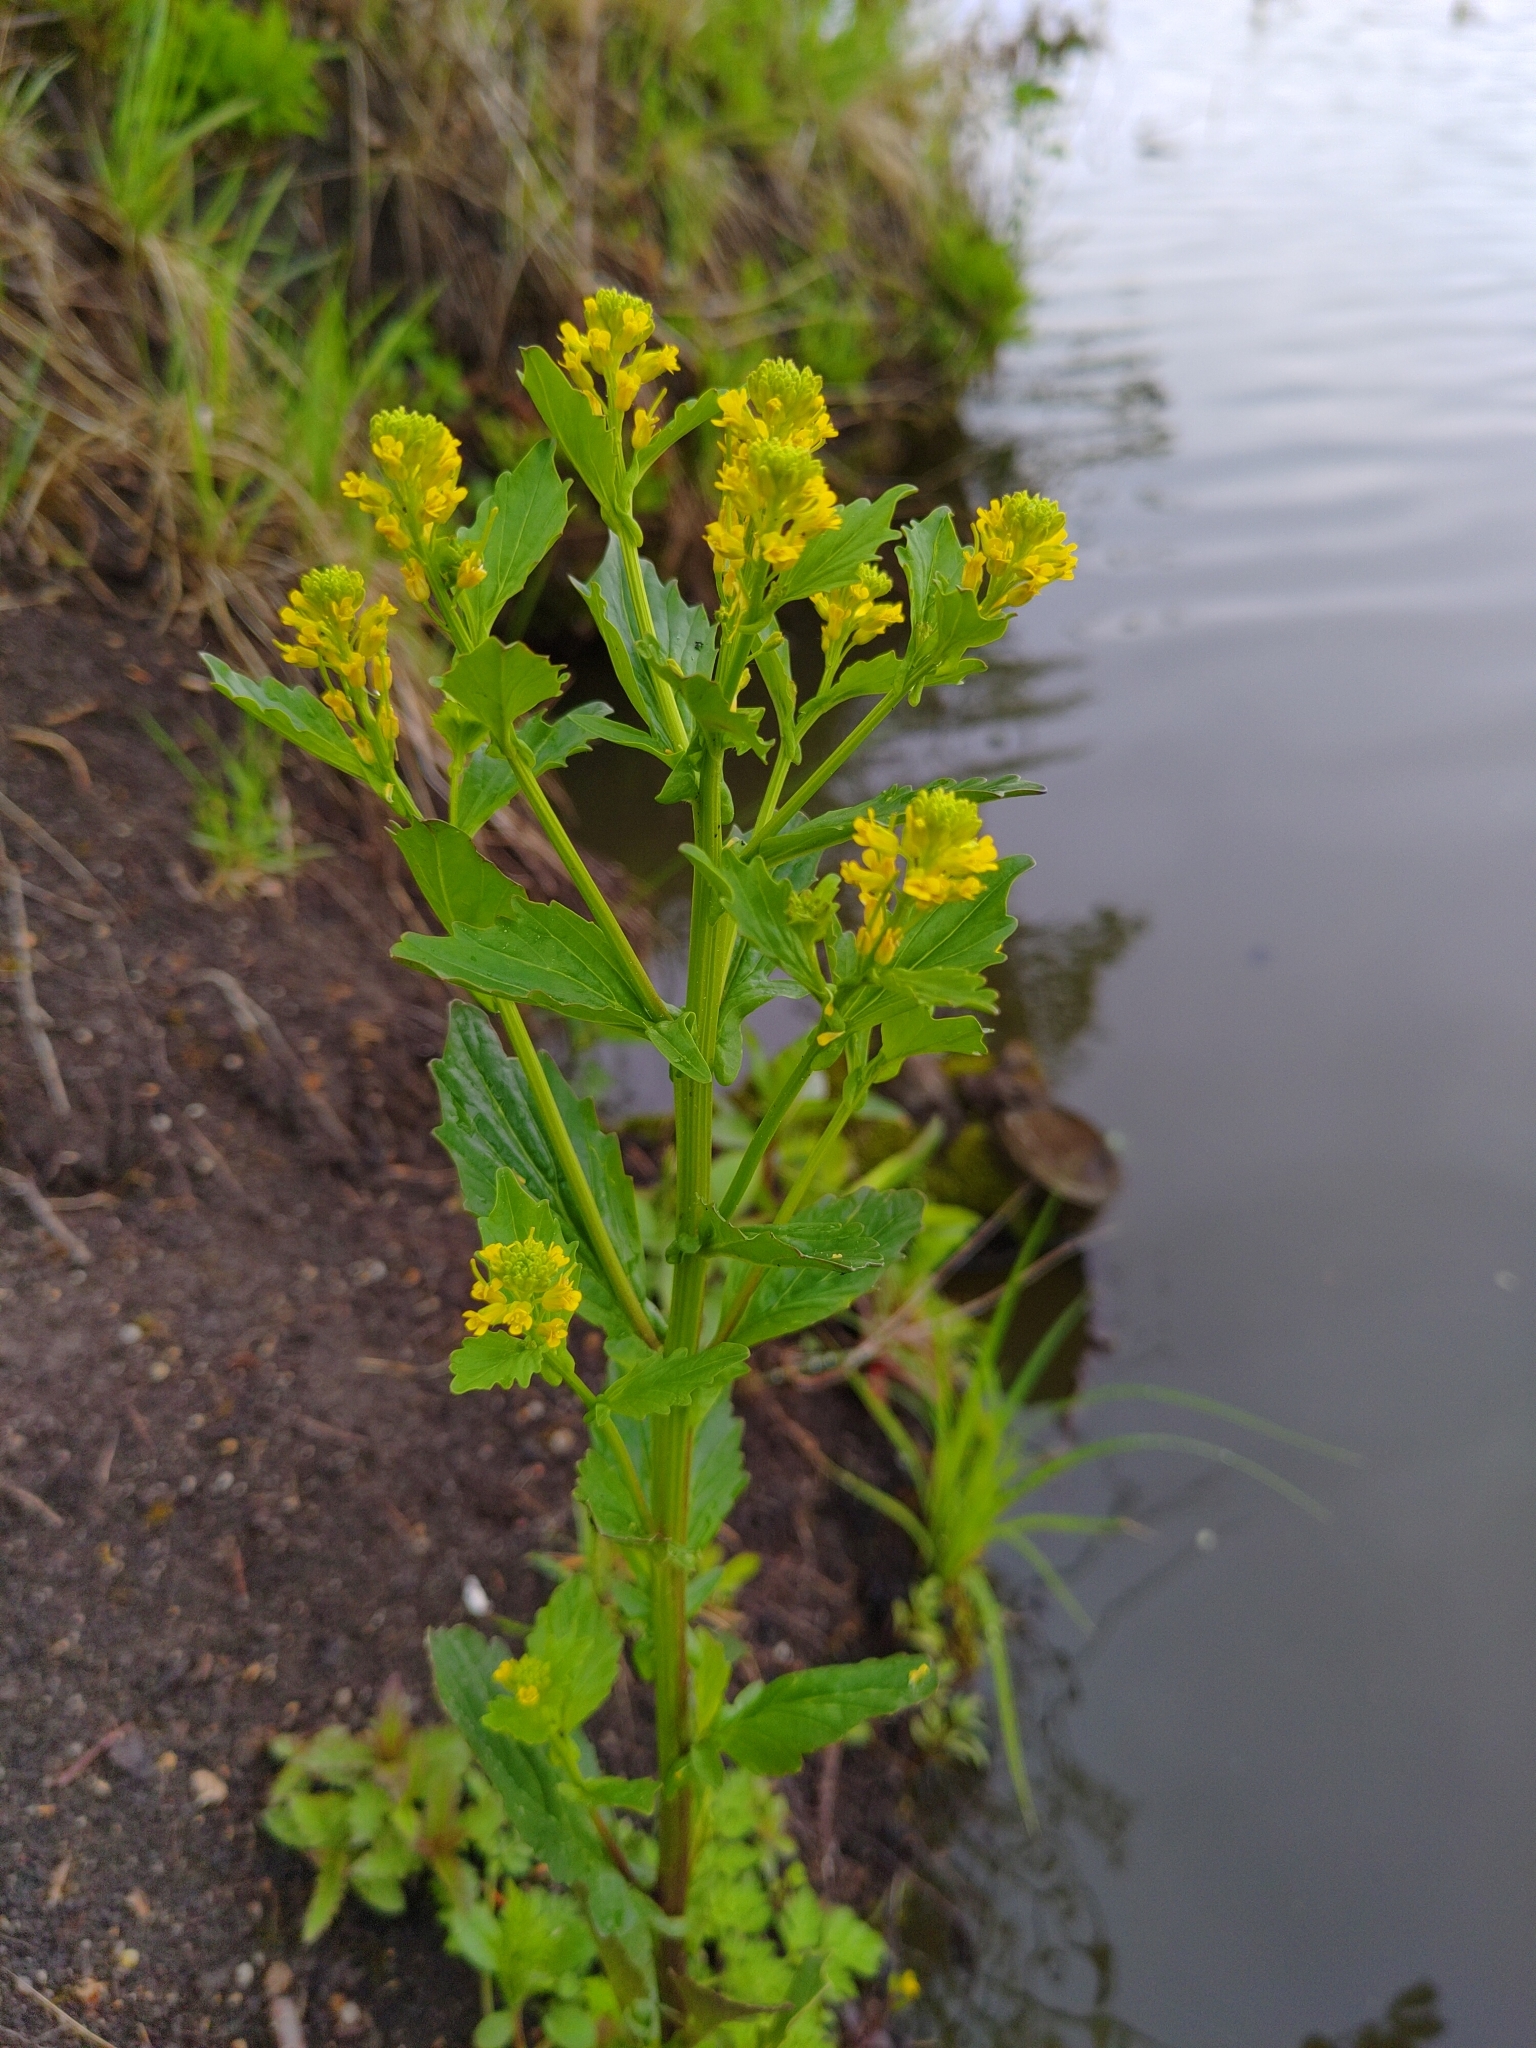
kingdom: Plantae
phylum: Tracheophyta
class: Magnoliopsida
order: Brassicales
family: Brassicaceae
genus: Barbarea
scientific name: Barbarea stricta
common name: Small-flowered winter-cress
